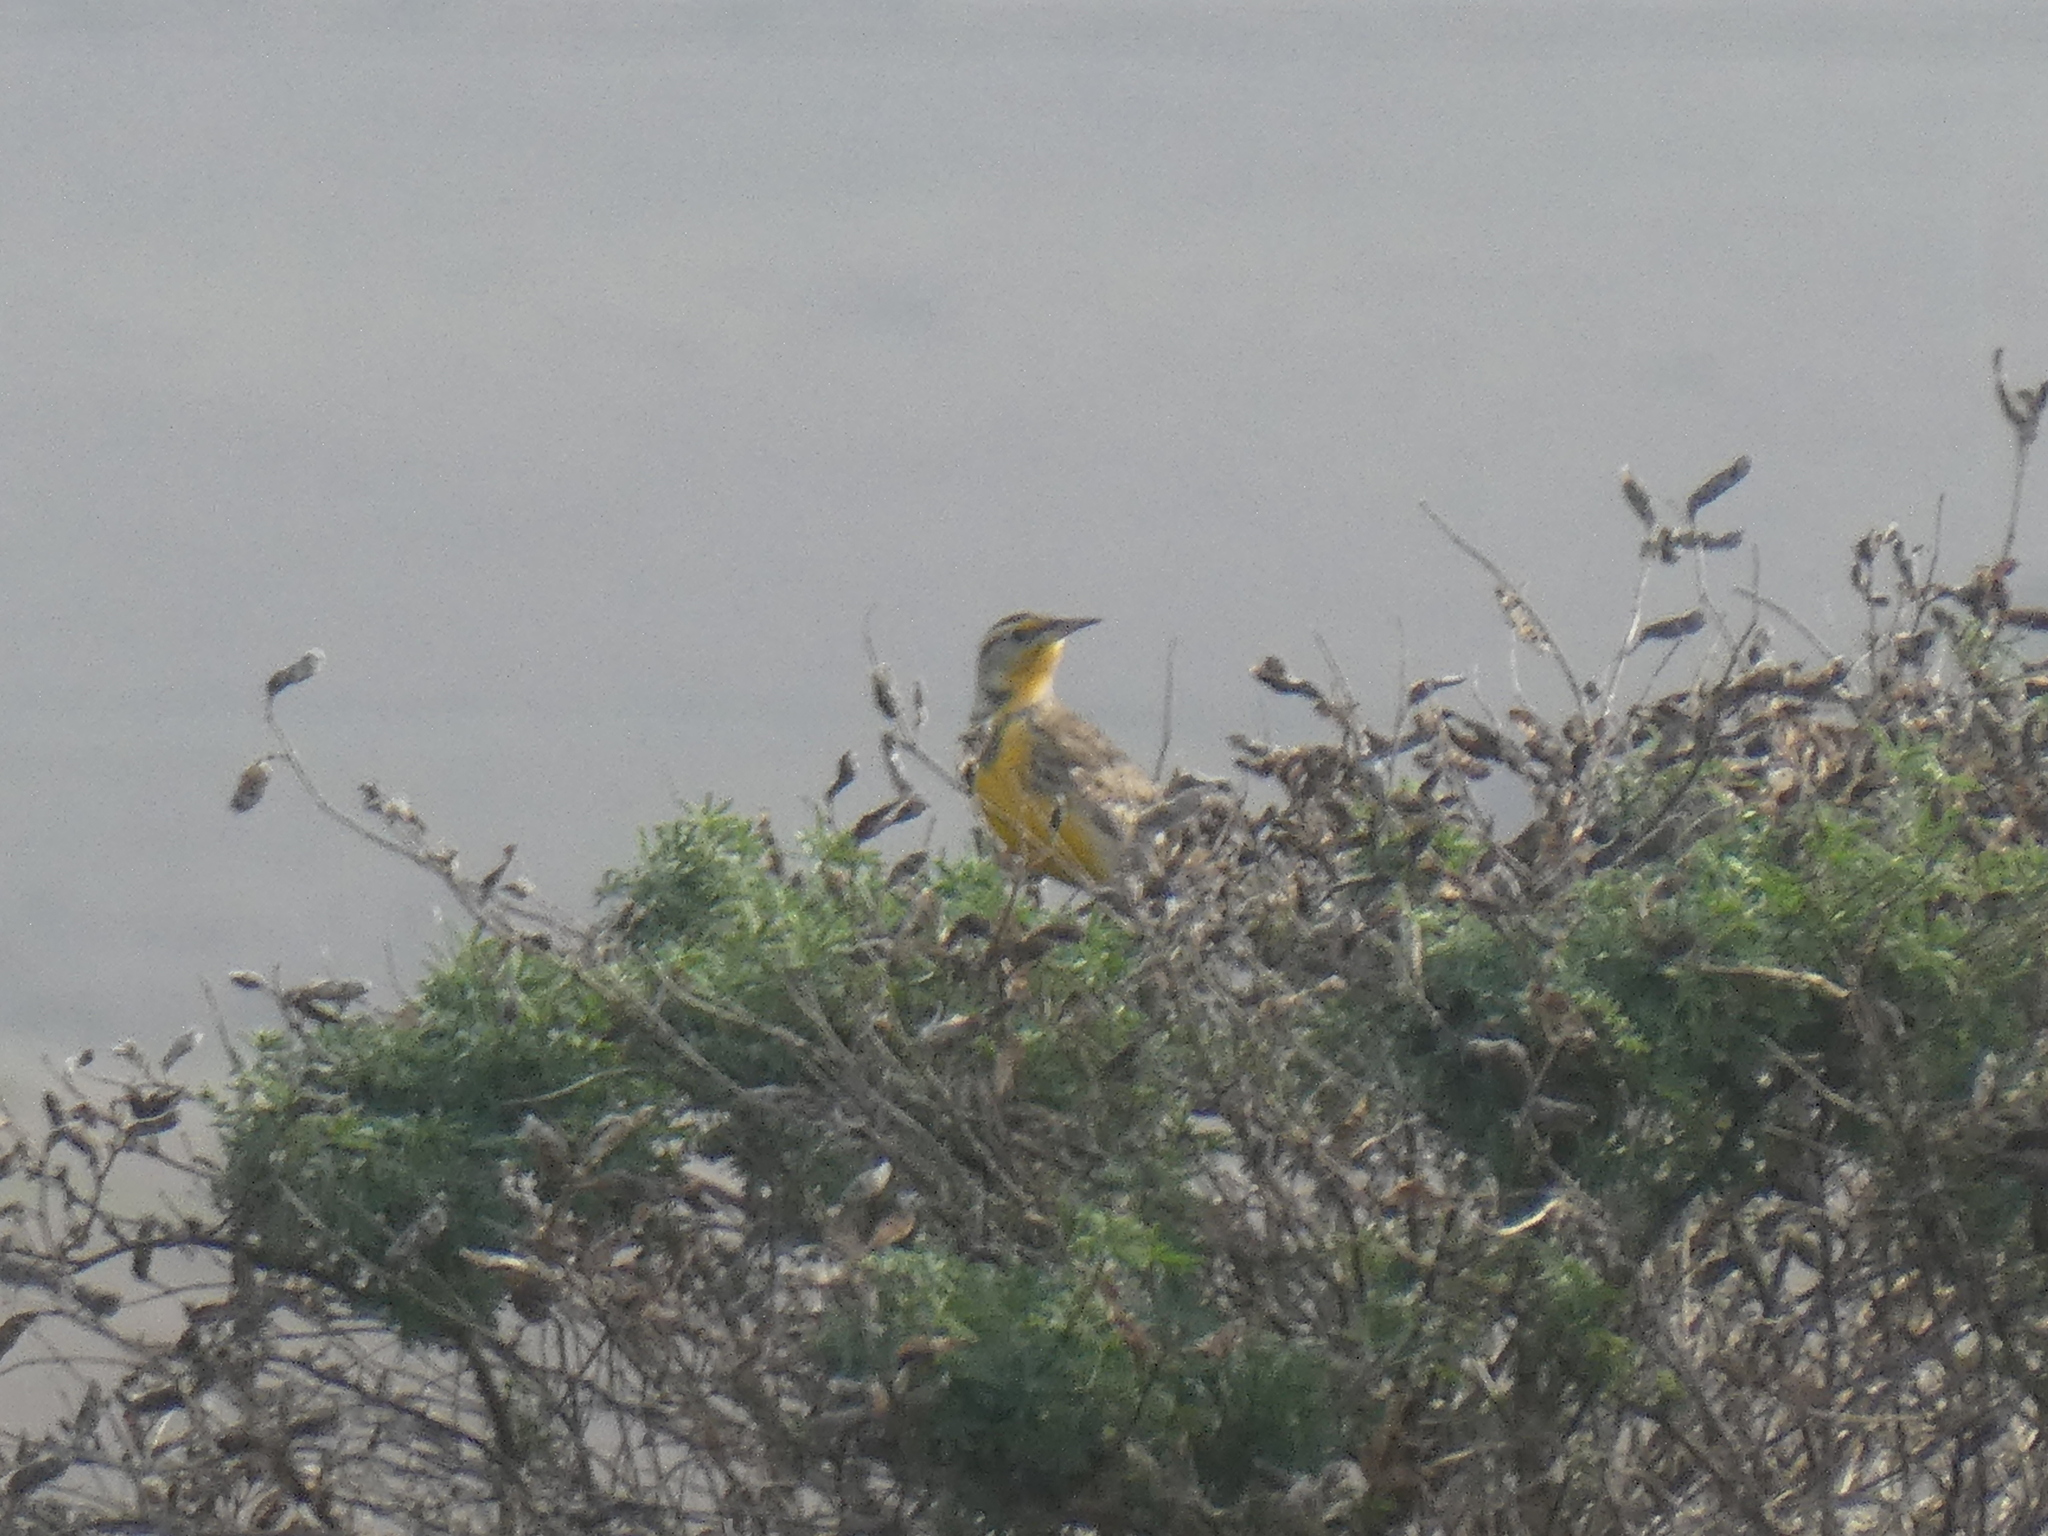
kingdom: Animalia
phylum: Chordata
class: Aves
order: Passeriformes
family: Icteridae
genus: Sturnella
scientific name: Sturnella neglecta
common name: Western meadowlark
